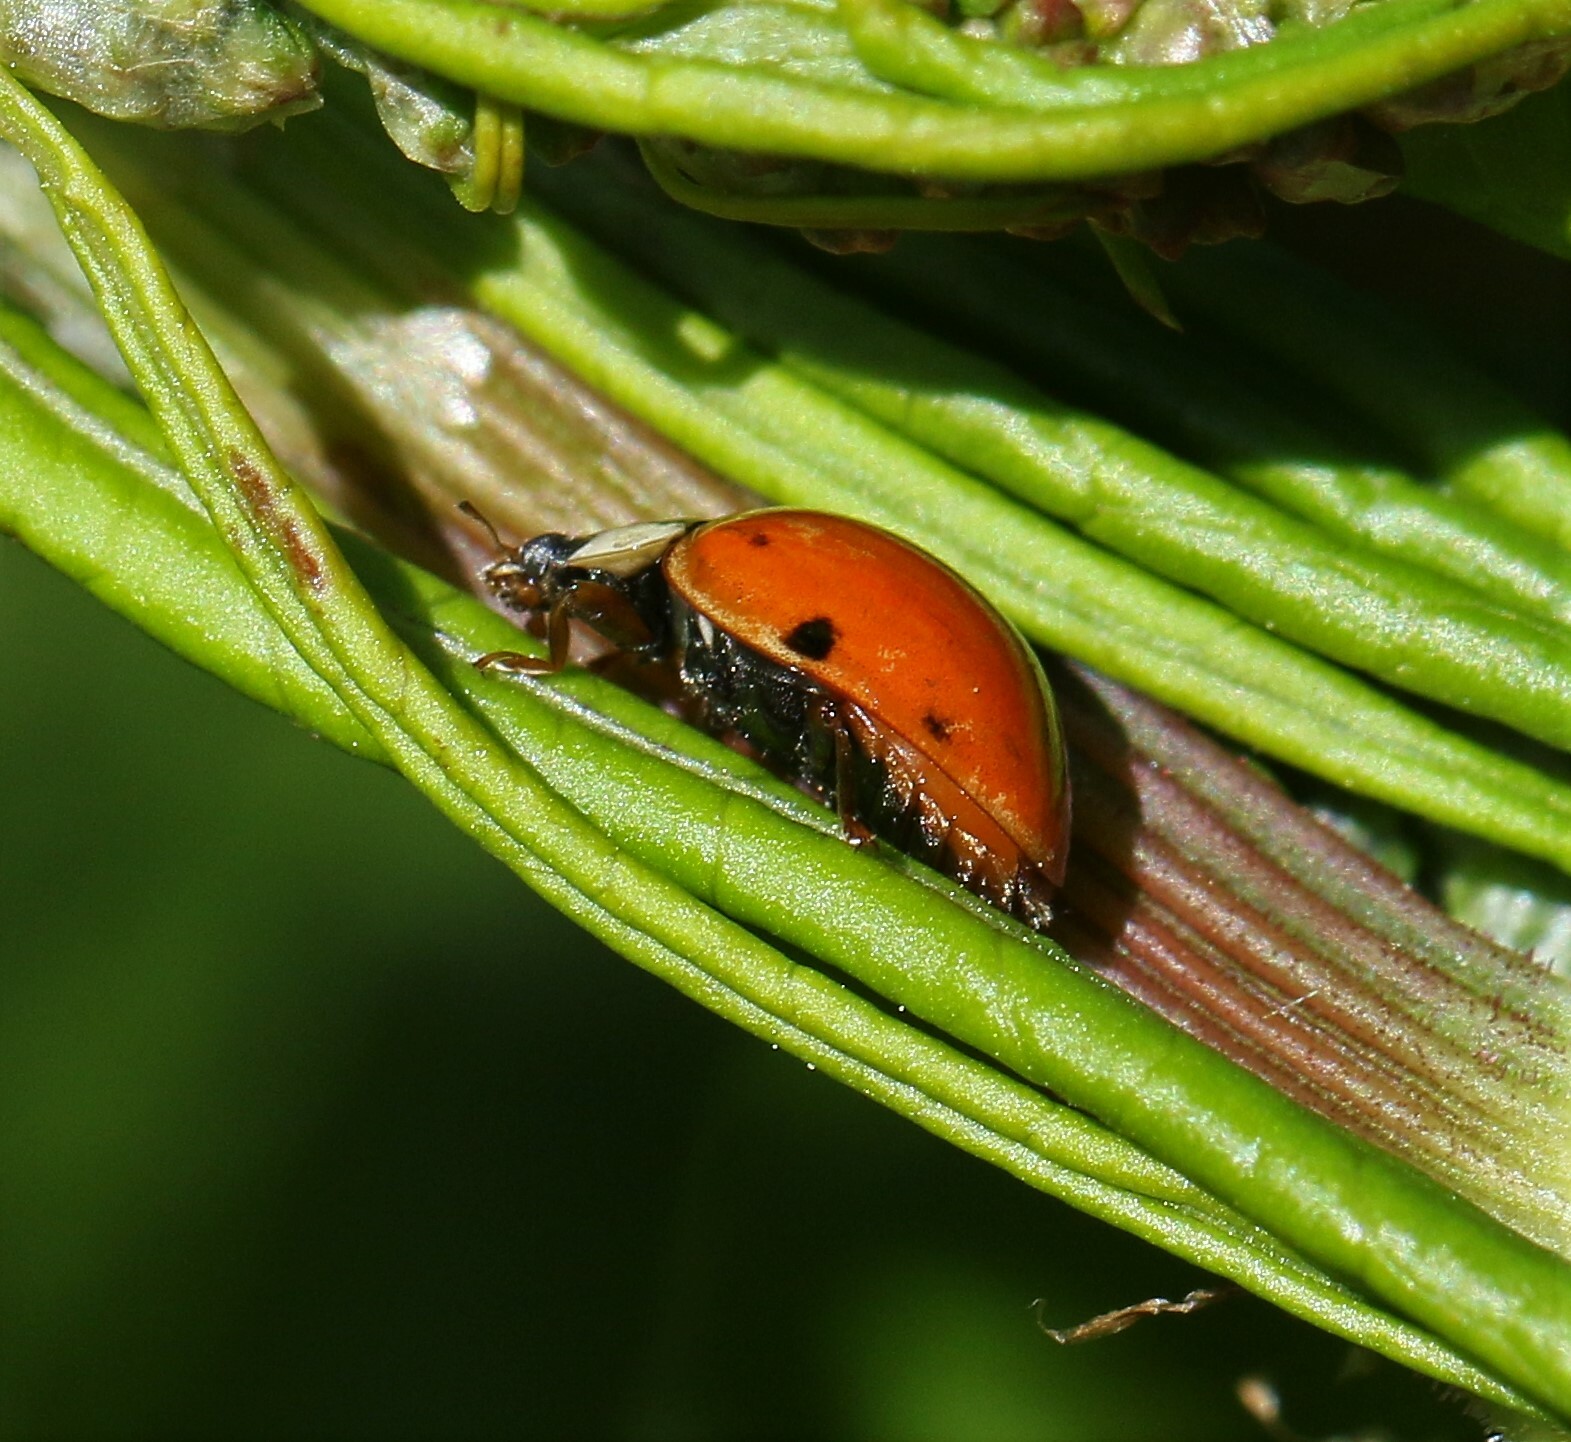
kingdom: Animalia
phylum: Arthropoda
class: Insecta
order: Coleoptera
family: Coccinellidae
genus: Harmonia
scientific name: Harmonia axyridis
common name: Harlequin ladybird
